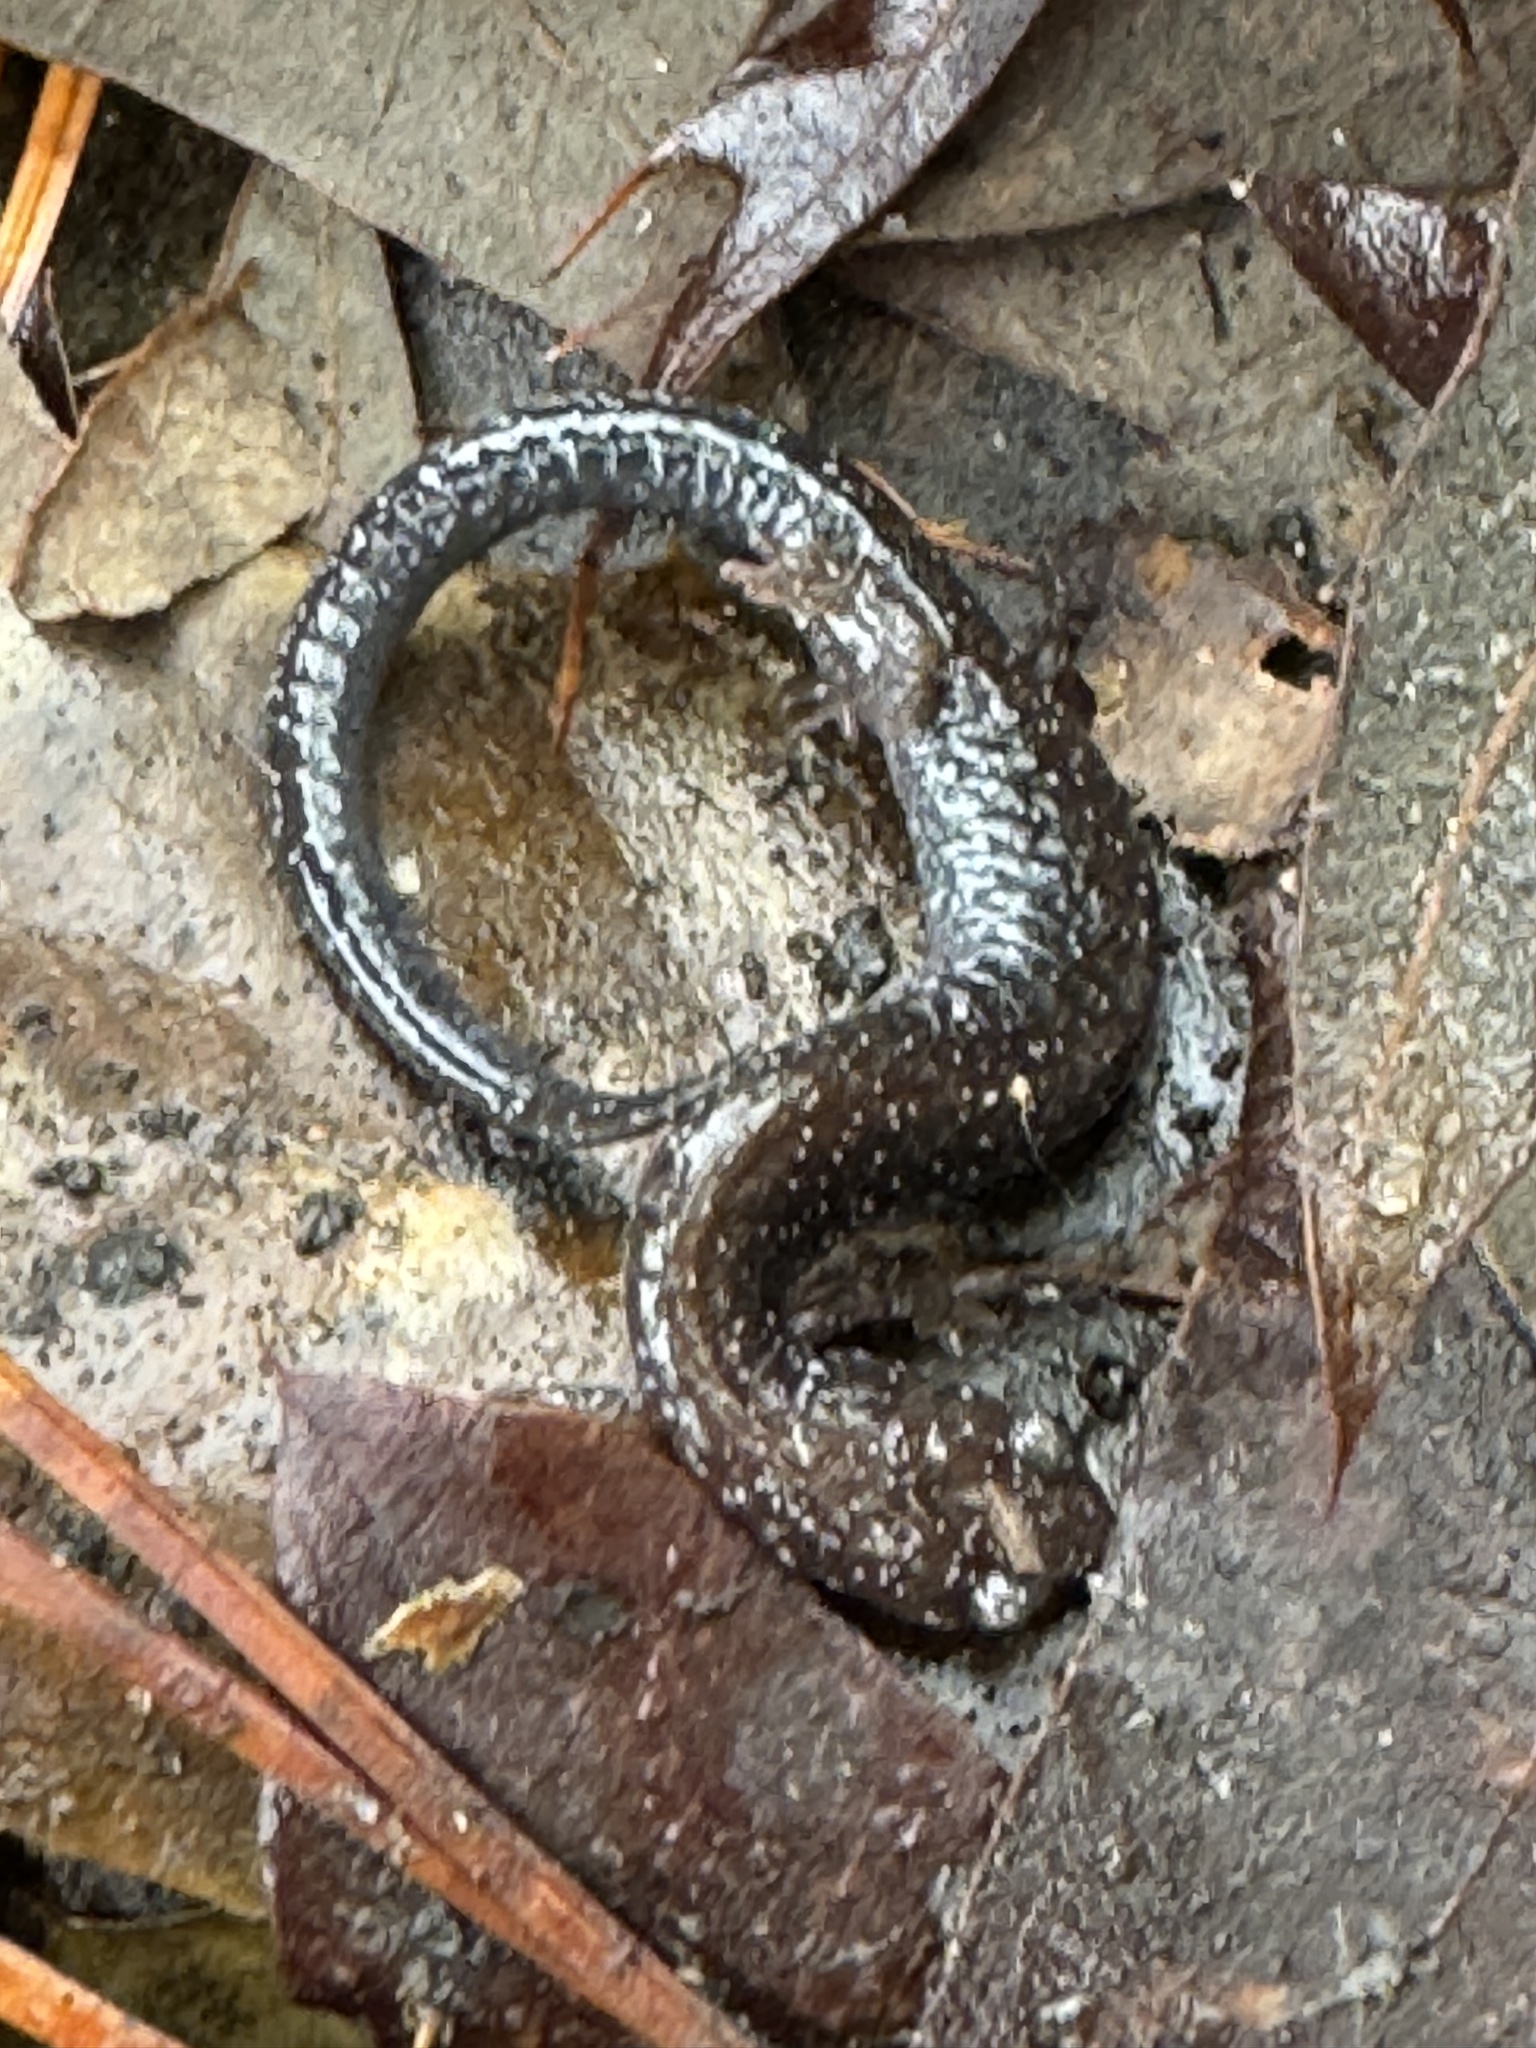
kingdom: Animalia
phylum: Chordata
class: Amphibia
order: Caudata
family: Plethodontidae
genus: Plethodon
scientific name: Plethodon cinereus
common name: Redback salamander
